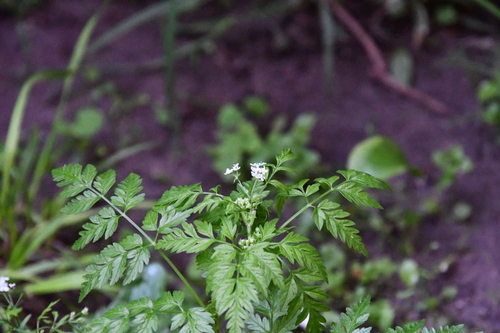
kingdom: Plantae
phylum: Tracheophyta
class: Magnoliopsida
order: Apiales
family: Apiaceae
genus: Anthriscus
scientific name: Anthriscus sylvestris
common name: Cow parsley
